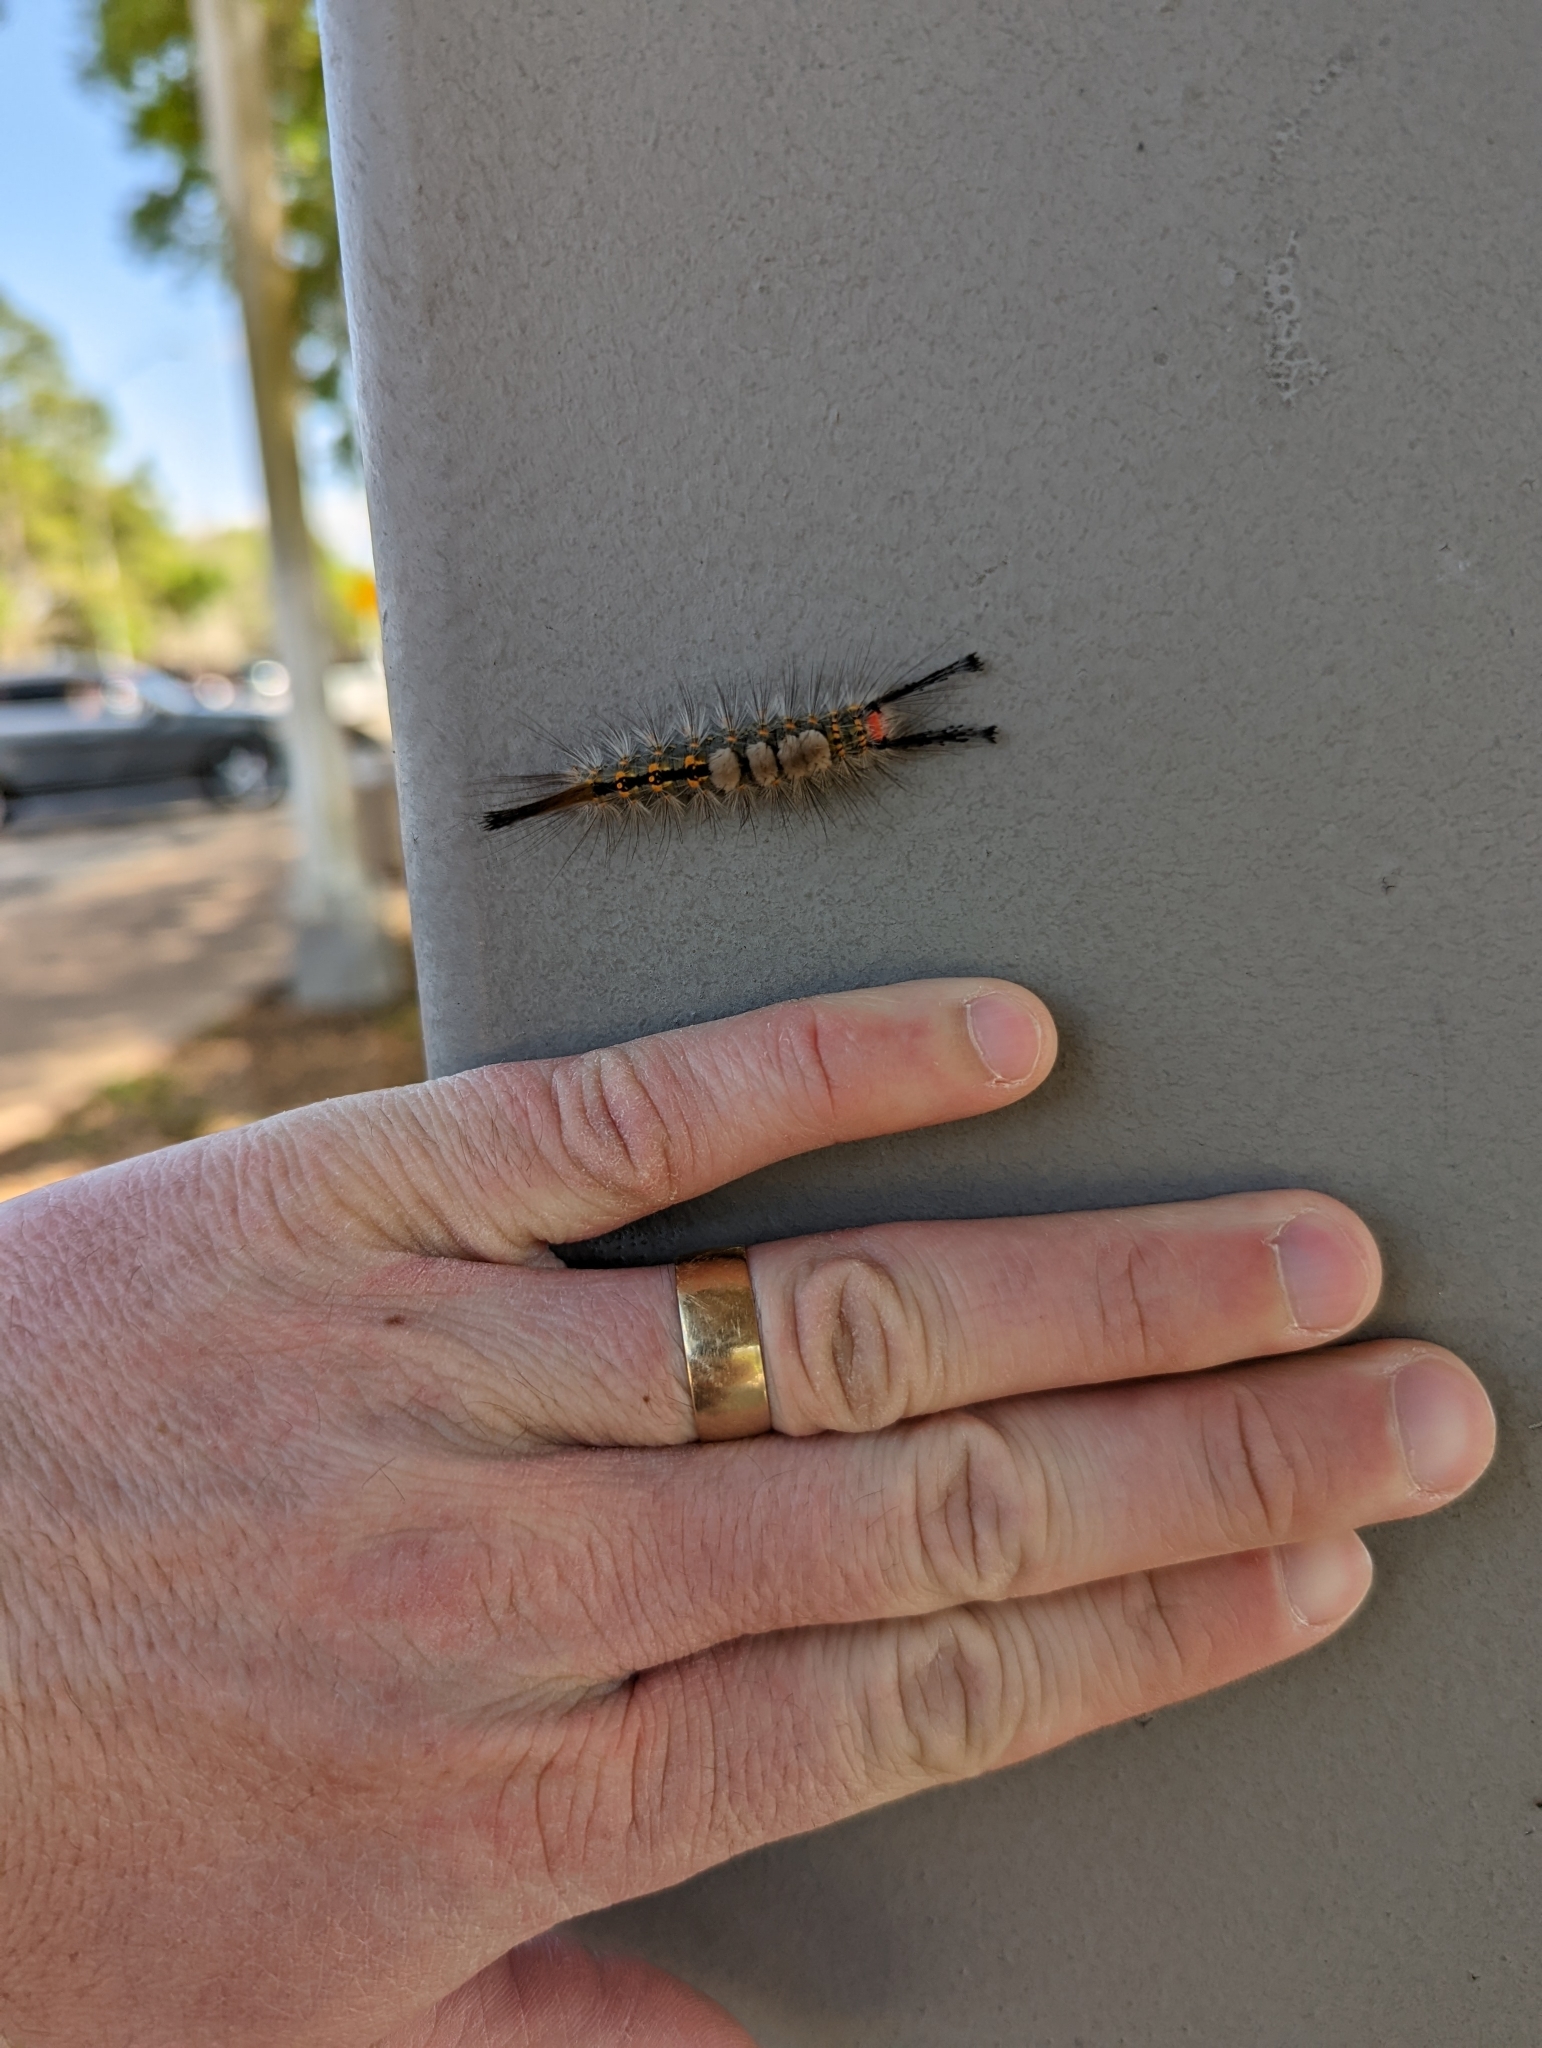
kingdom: Animalia
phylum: Arthropoda
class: Insecta
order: Lepidoptera
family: Erebidae
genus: Orgyia
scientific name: Orgyia detrita
